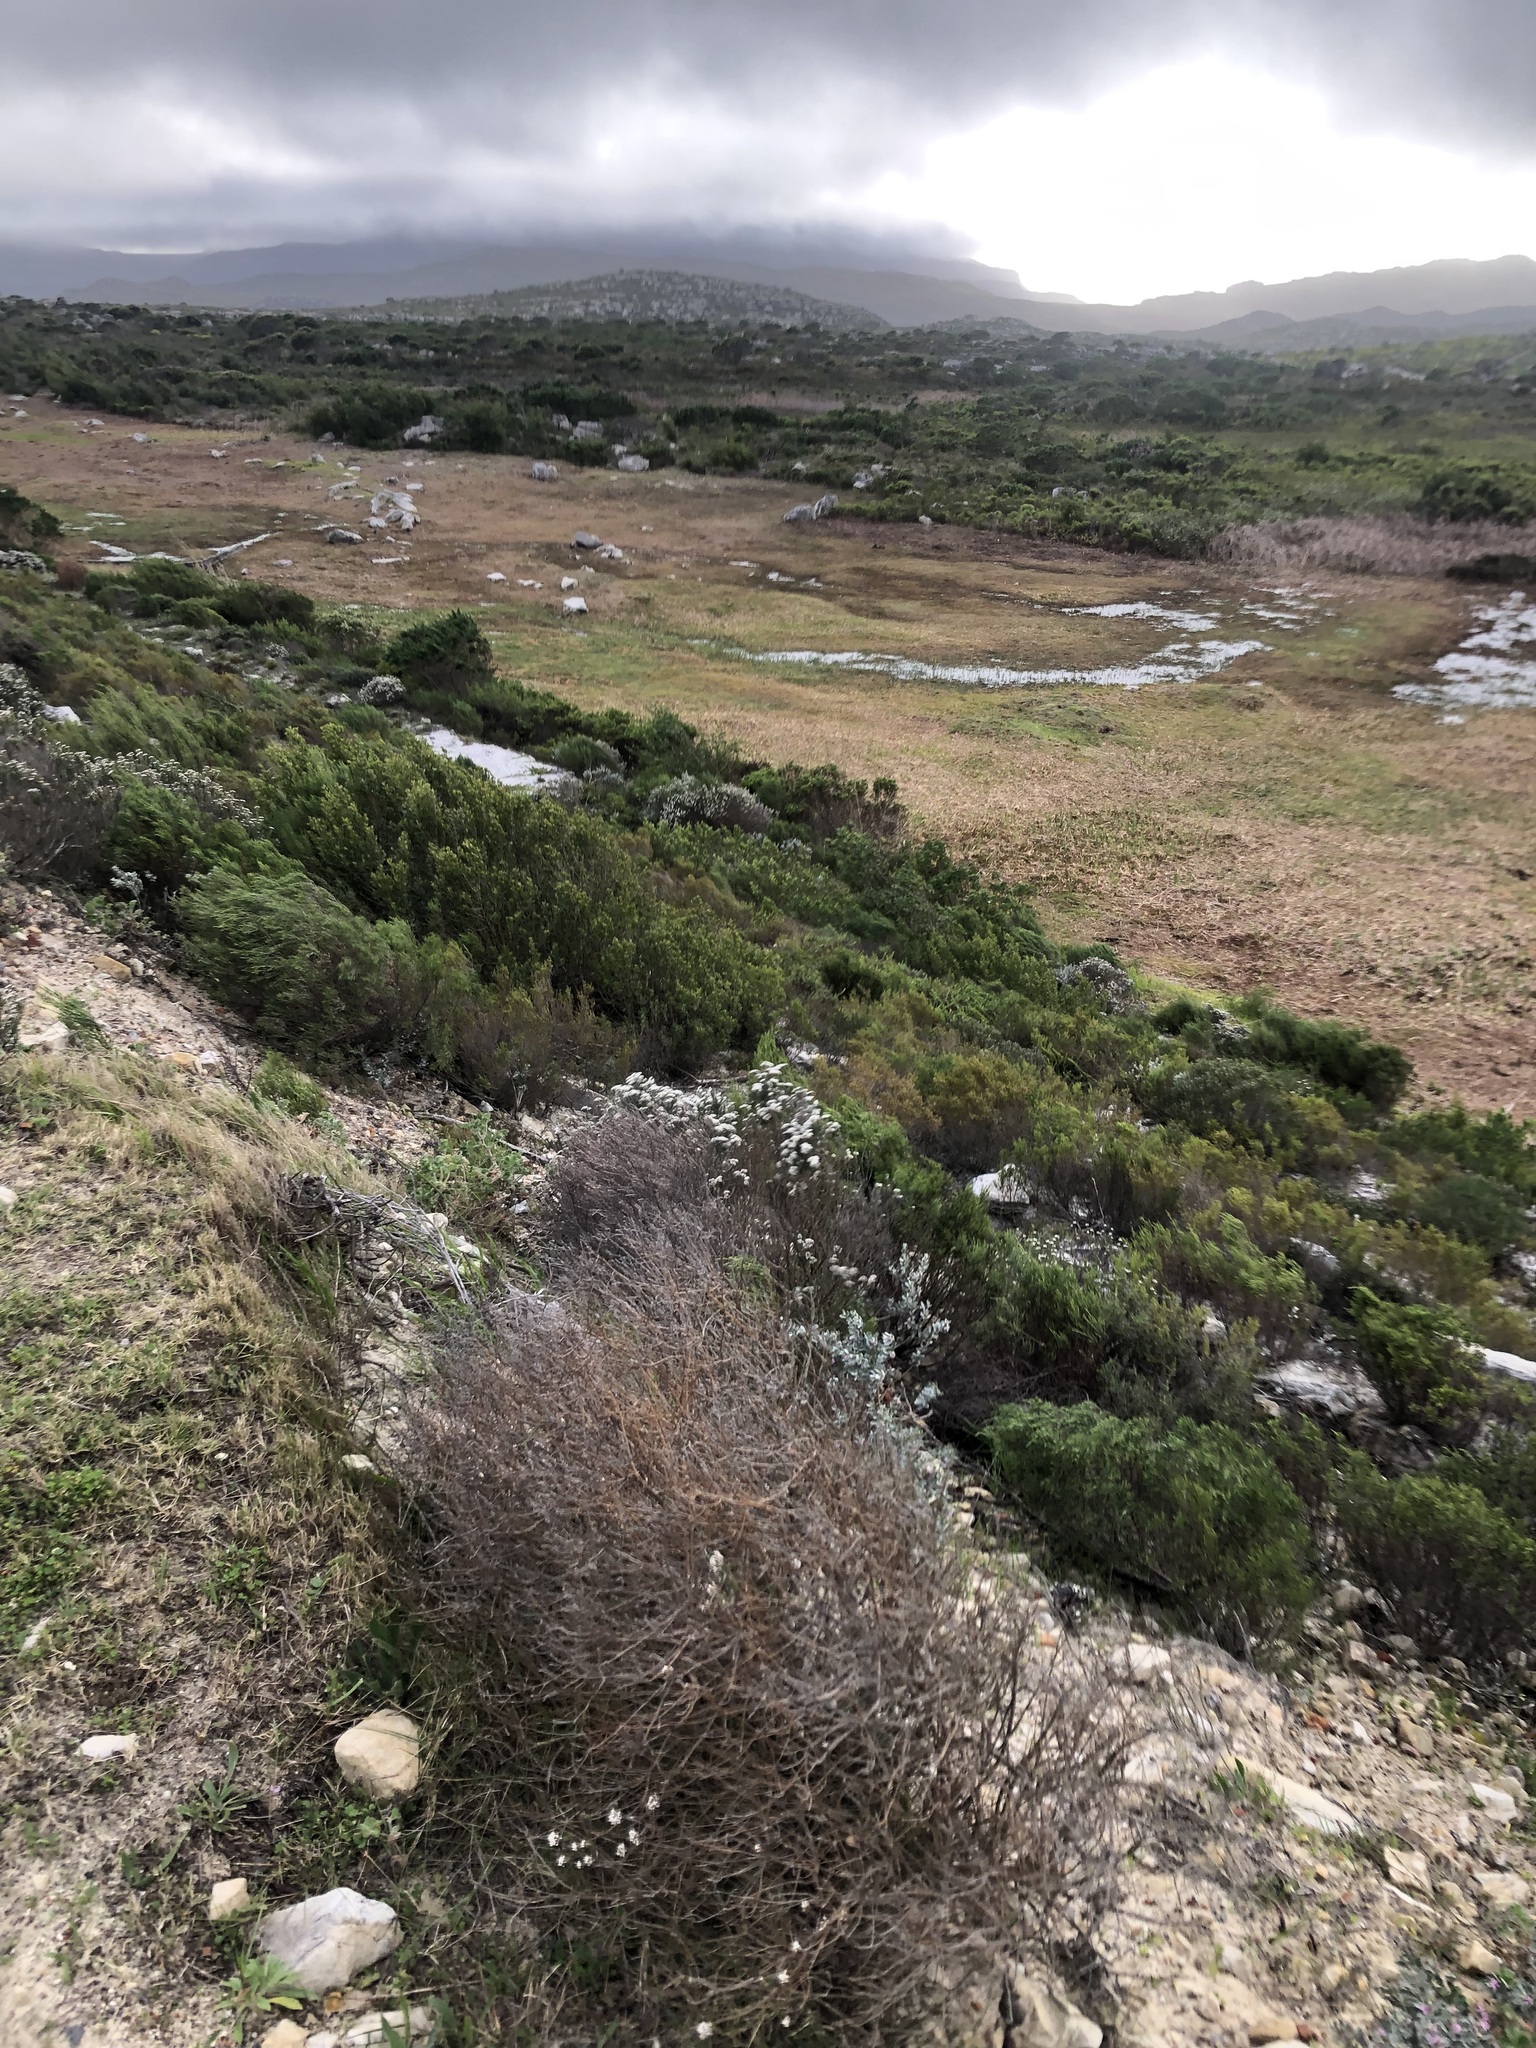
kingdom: Plantae
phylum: Tracheophyta
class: Magnoliopsida
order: Asterales
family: Asteraceae
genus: Metalasia
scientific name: Metalasia densa
